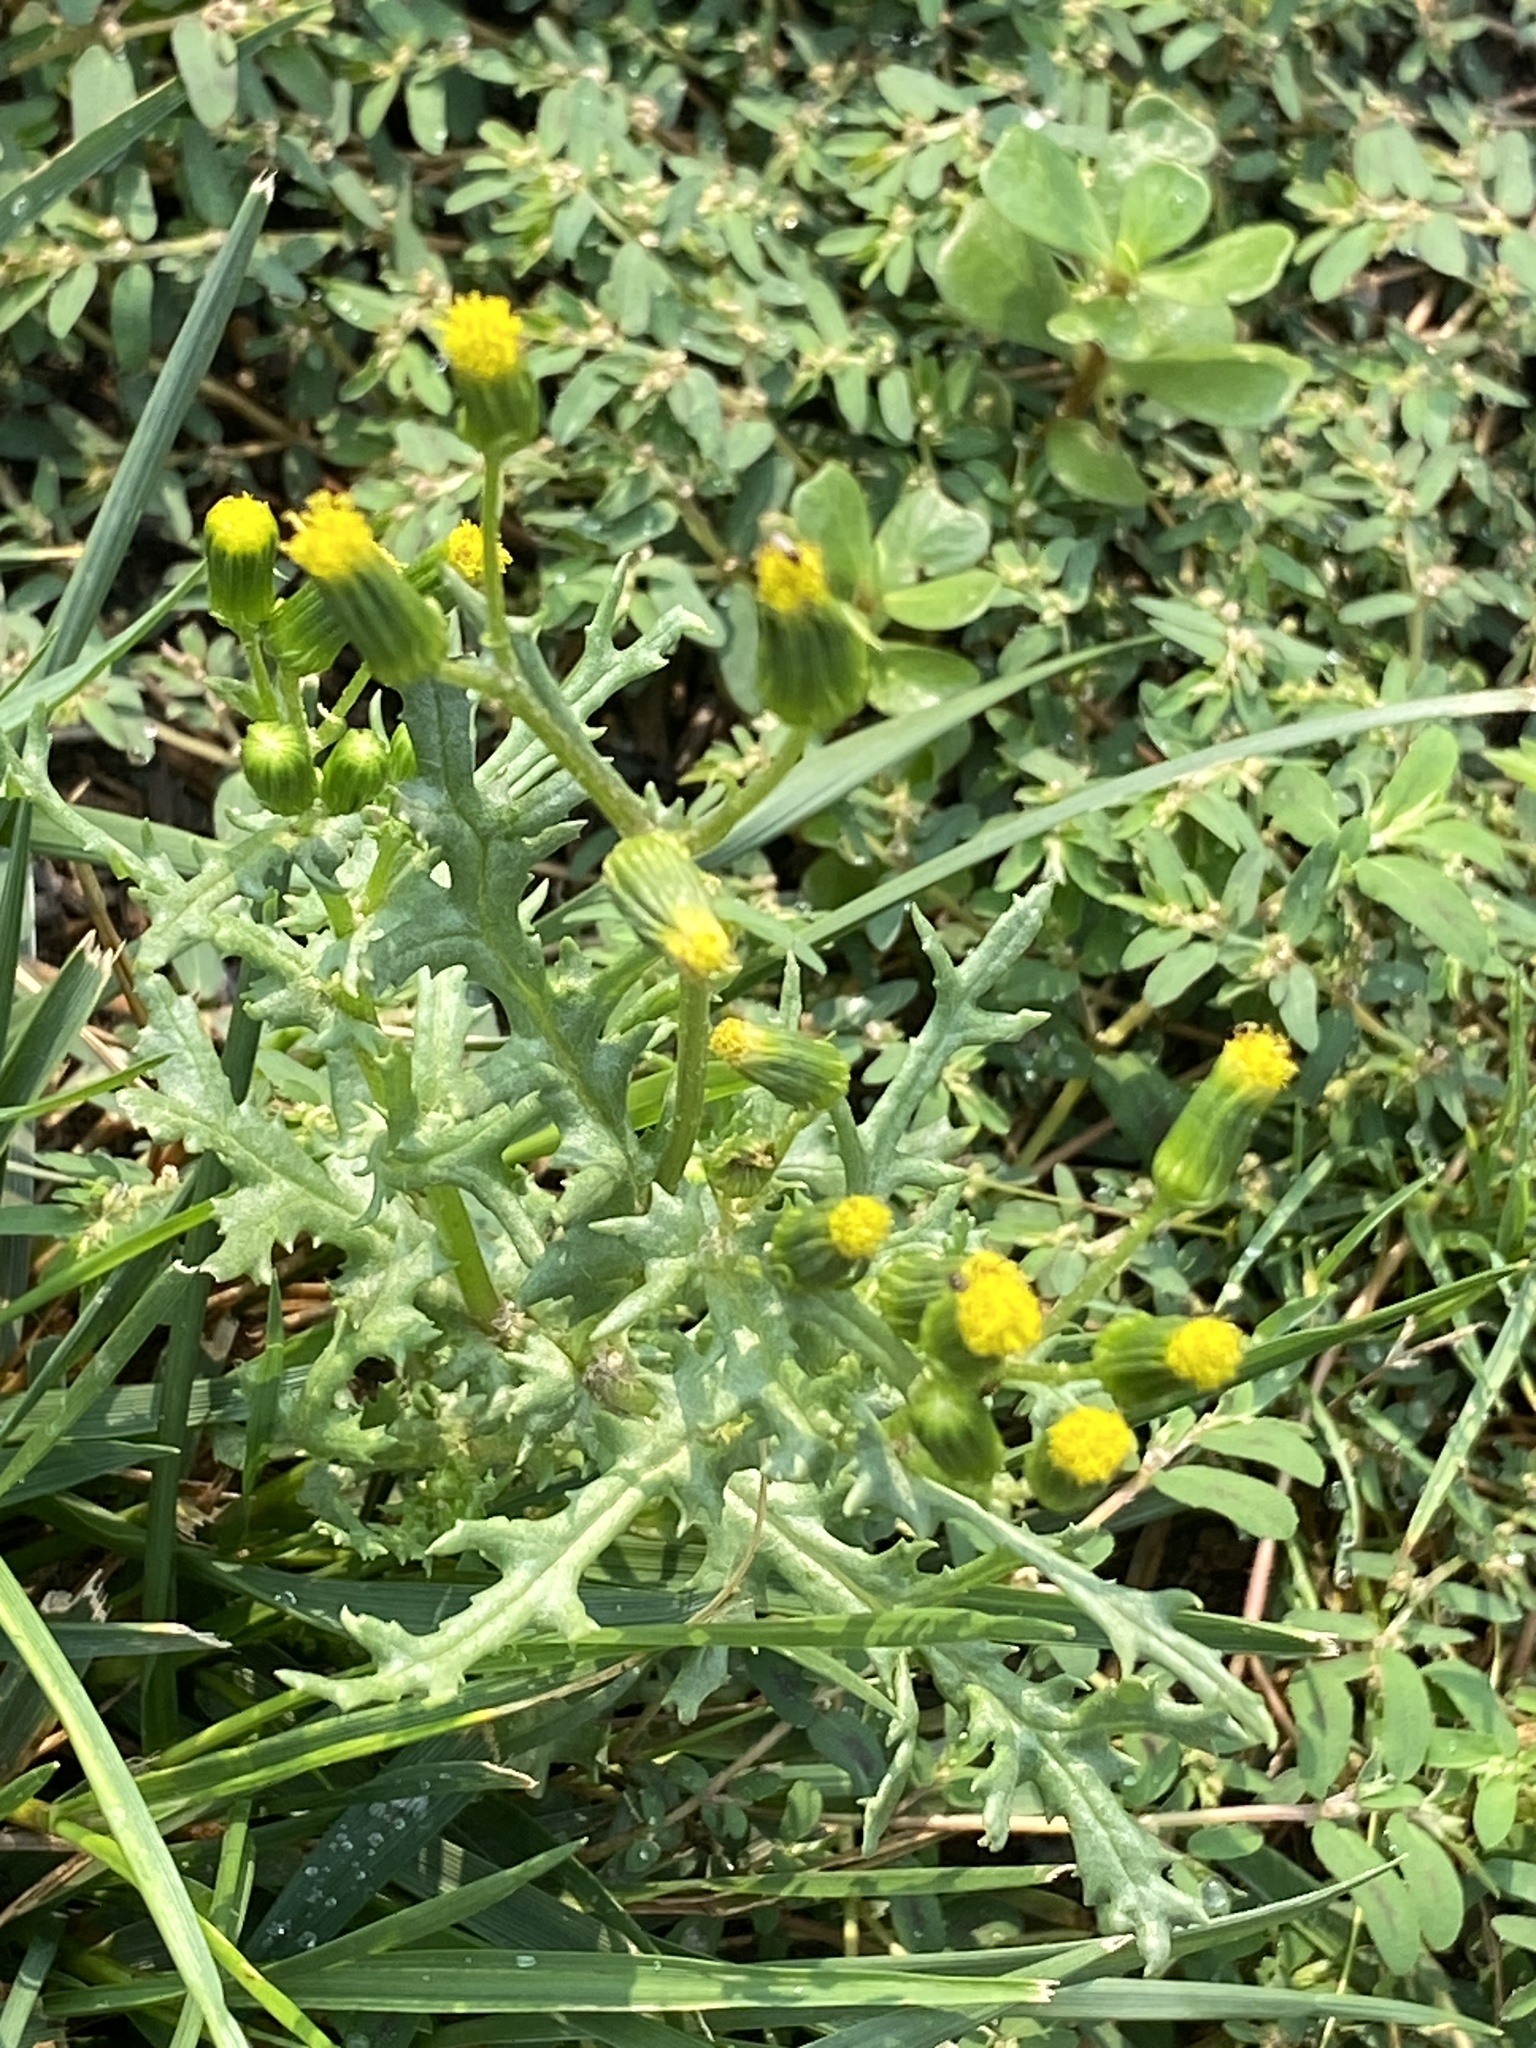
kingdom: Plantae
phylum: Tracheophyta
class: Magnoliopsida
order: Asterales
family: Asteraceae
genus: Senecio
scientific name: Senecio vulgaris
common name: Old-man-in-the-spring
